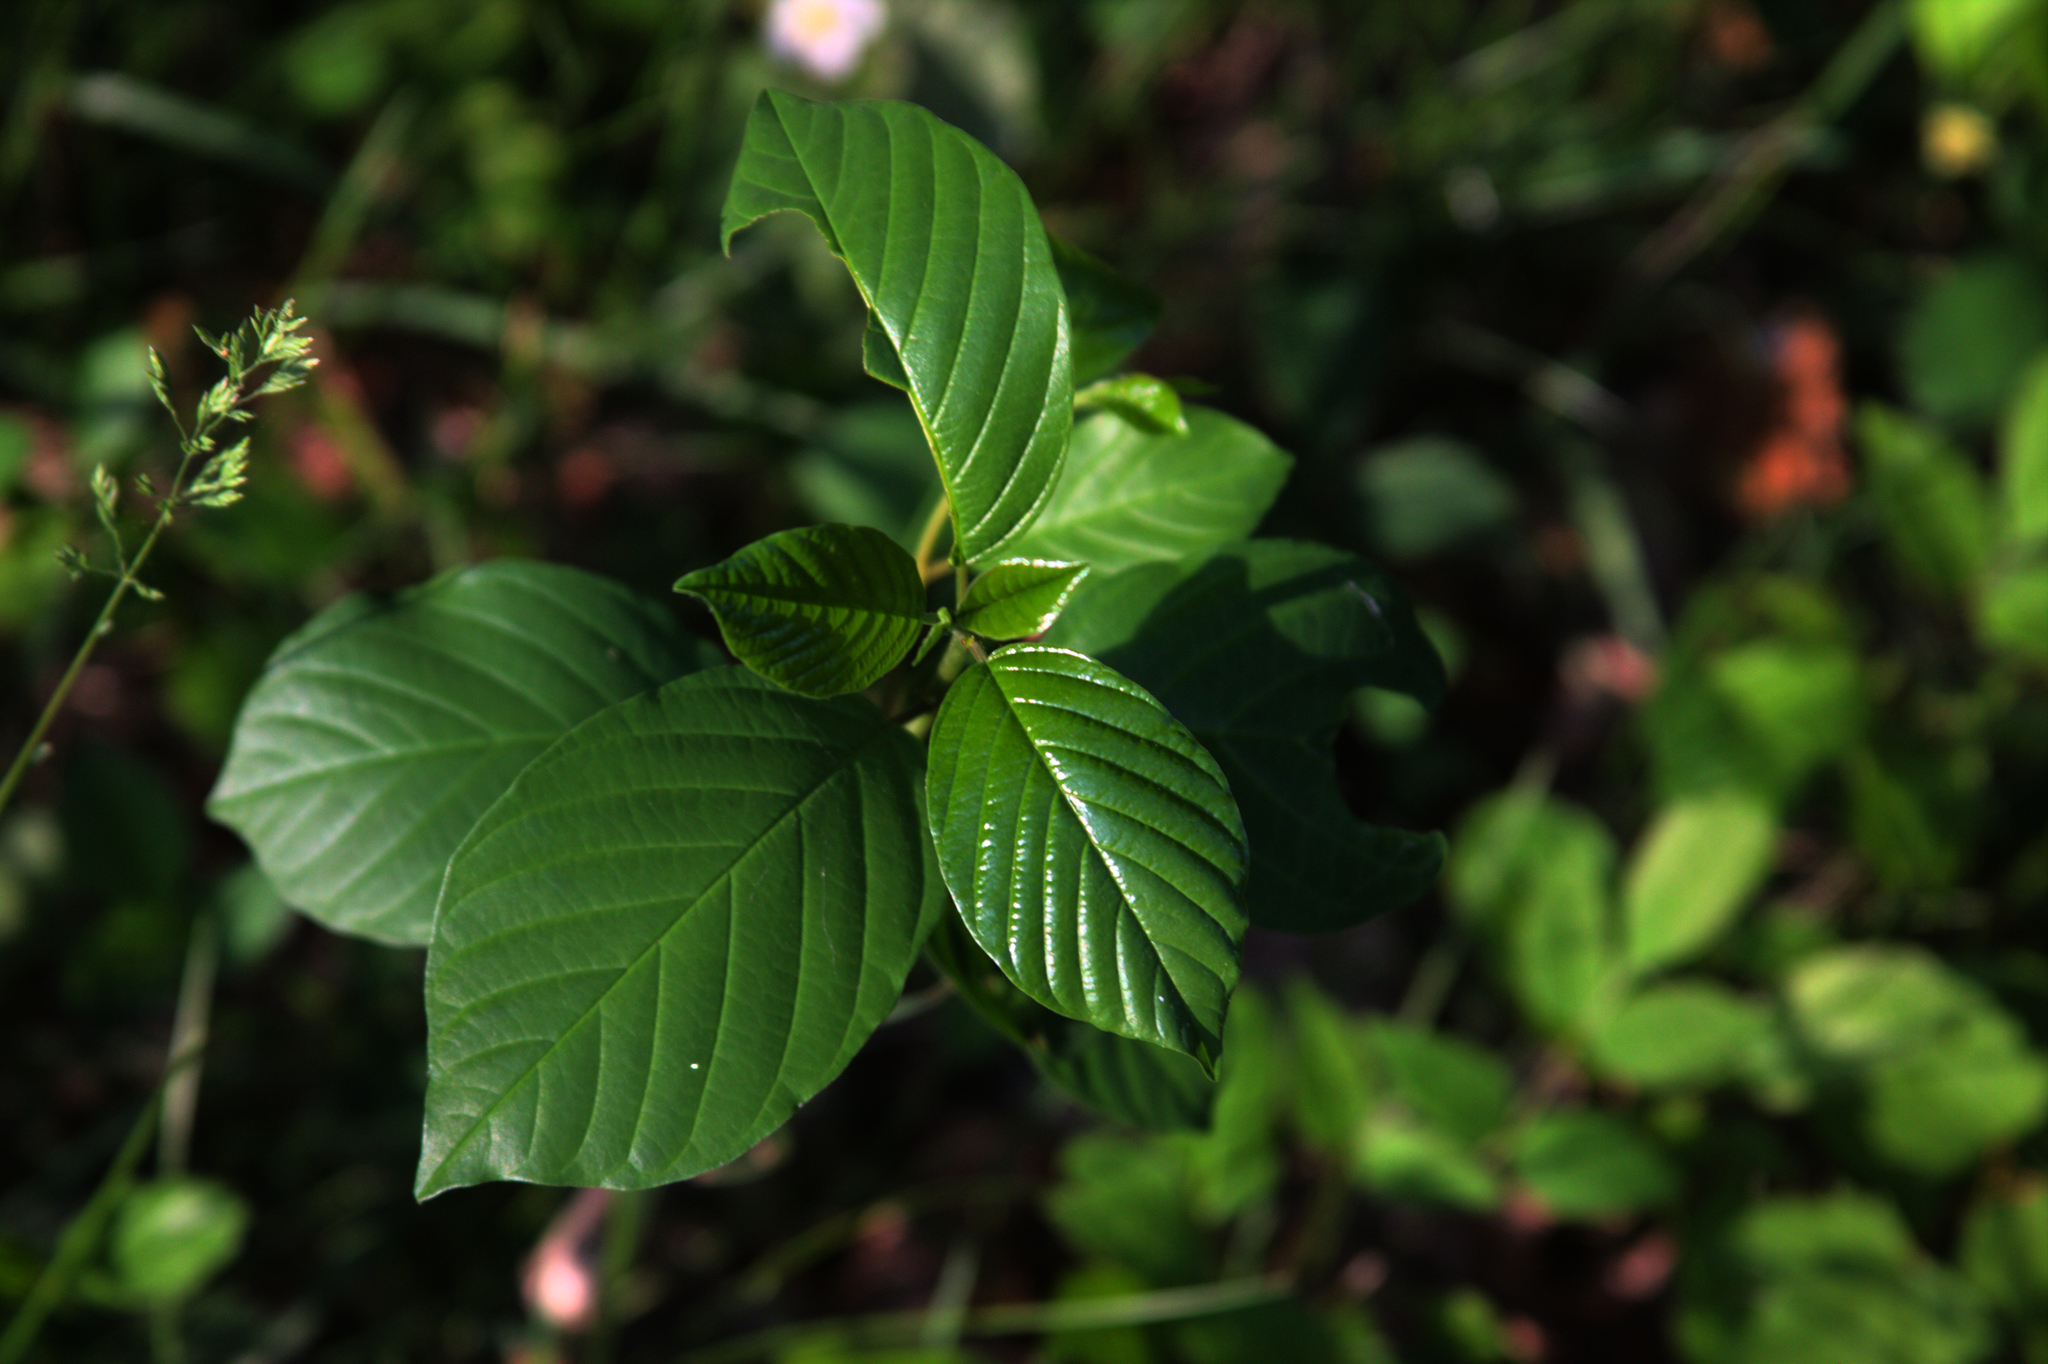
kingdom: Plantae
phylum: Tracheophyta
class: Magnoliopsida
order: Rosales
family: Rhamnaceae
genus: Frangula
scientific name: Frangula alnus
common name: Alder buckthorn
